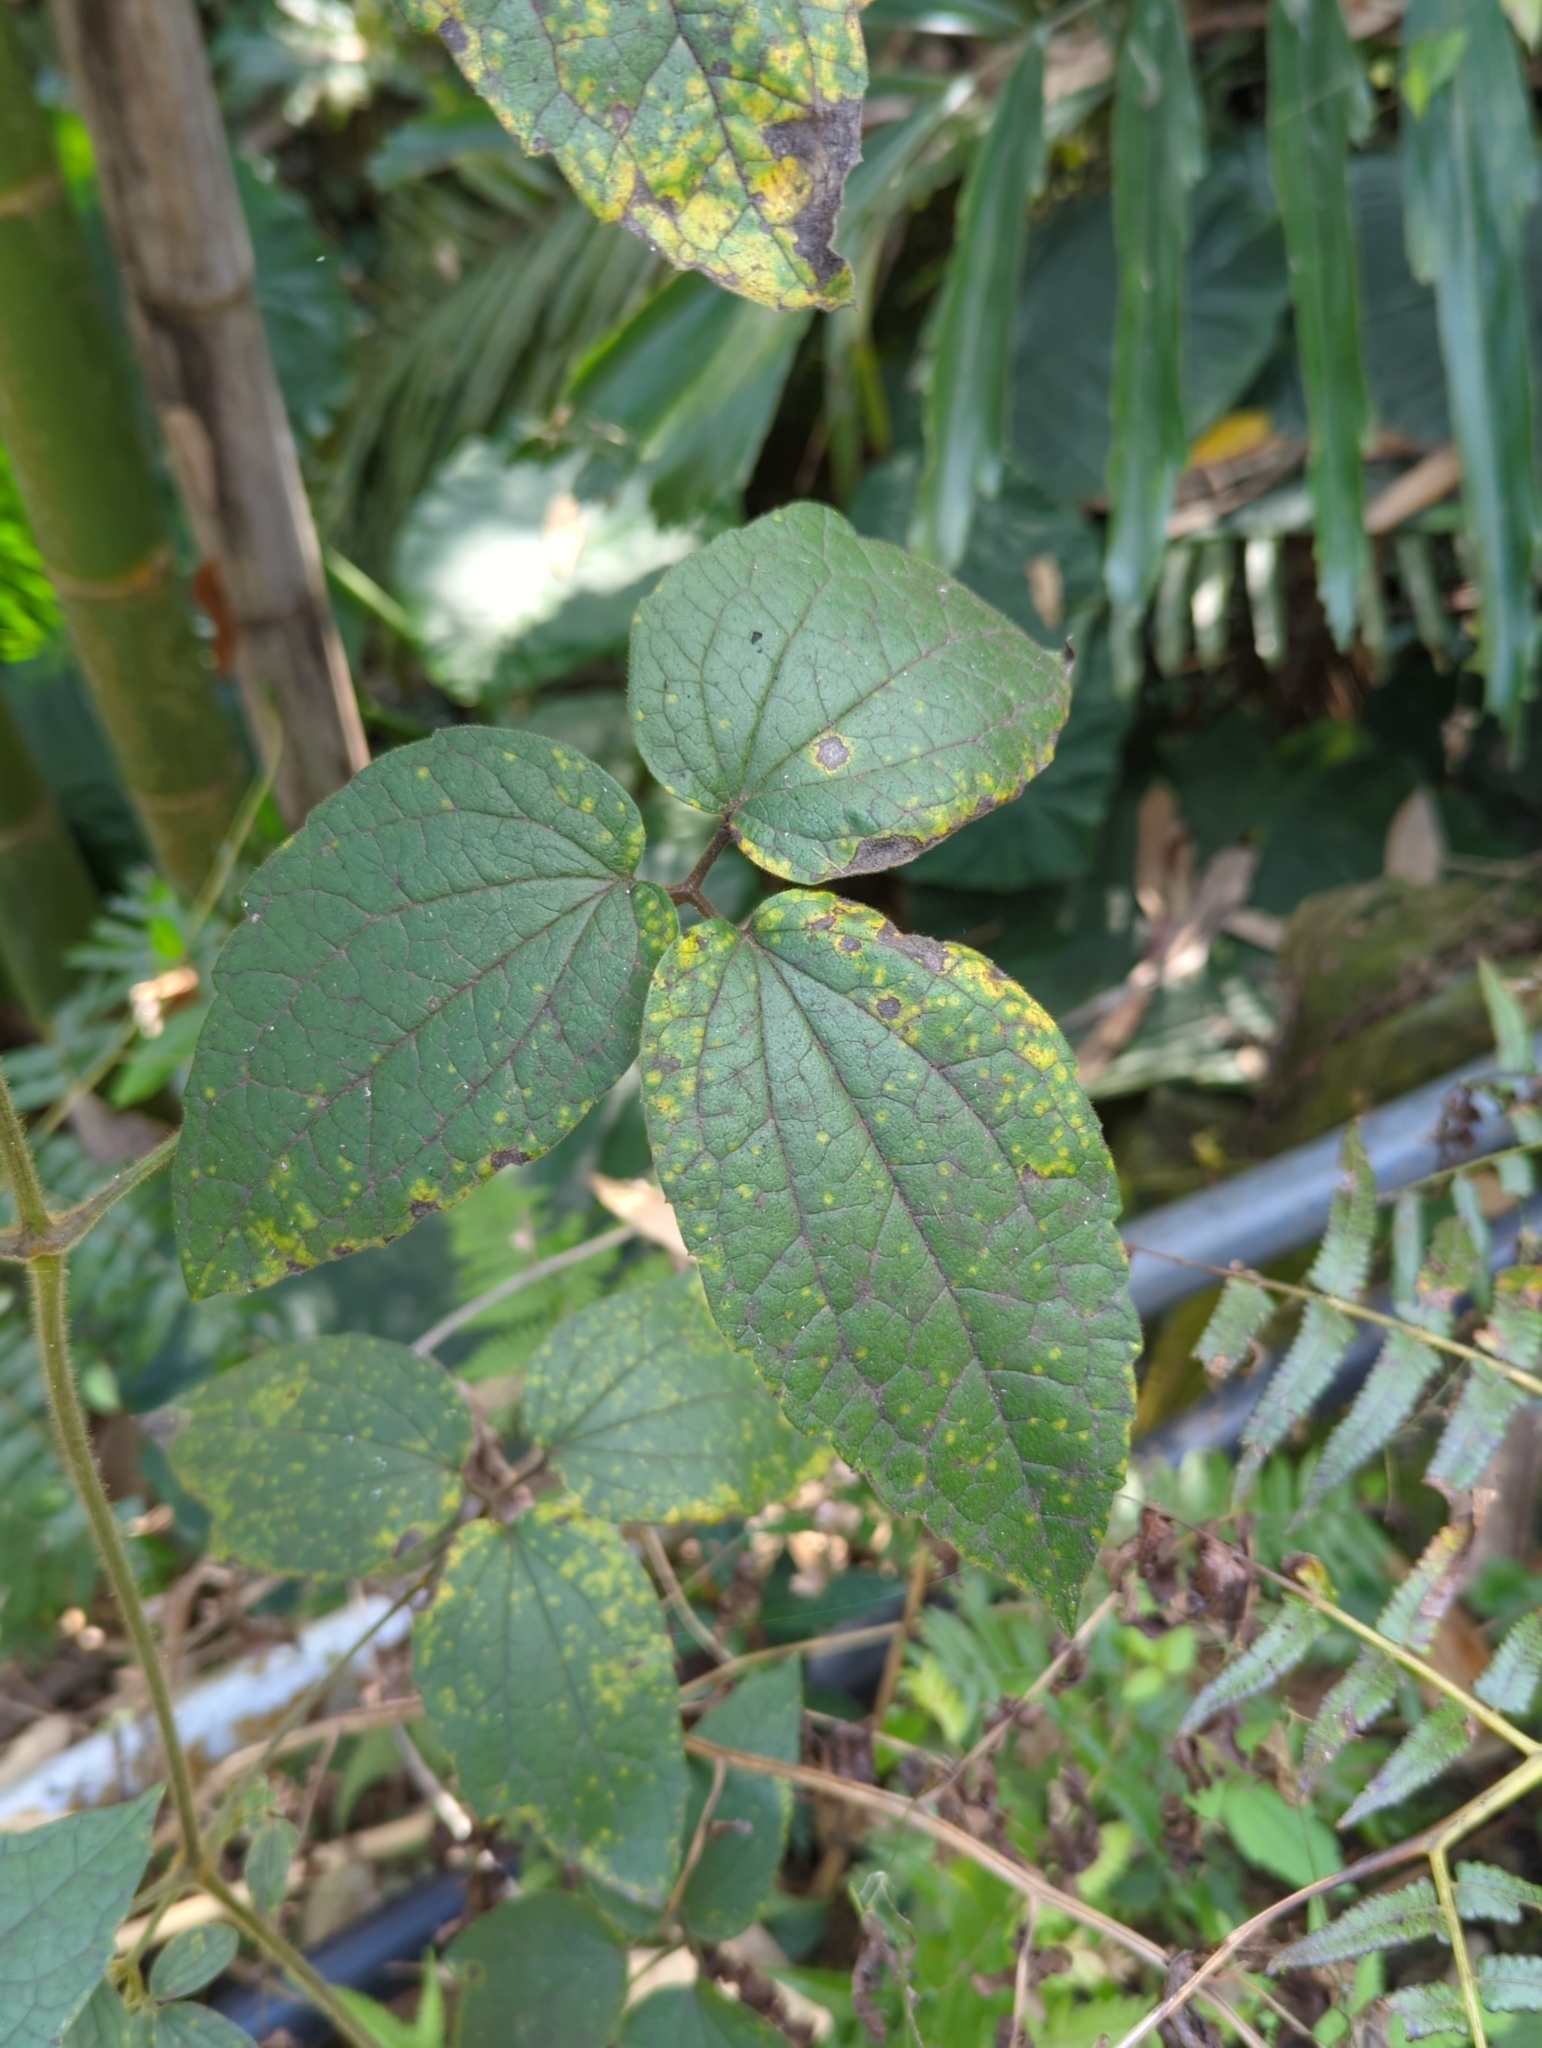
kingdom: Plantae
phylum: Tracheophyta
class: Magnoliopsida
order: Ranunculales
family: Ranunculaceae
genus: Clematis
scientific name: Clematis leschenaultiana
